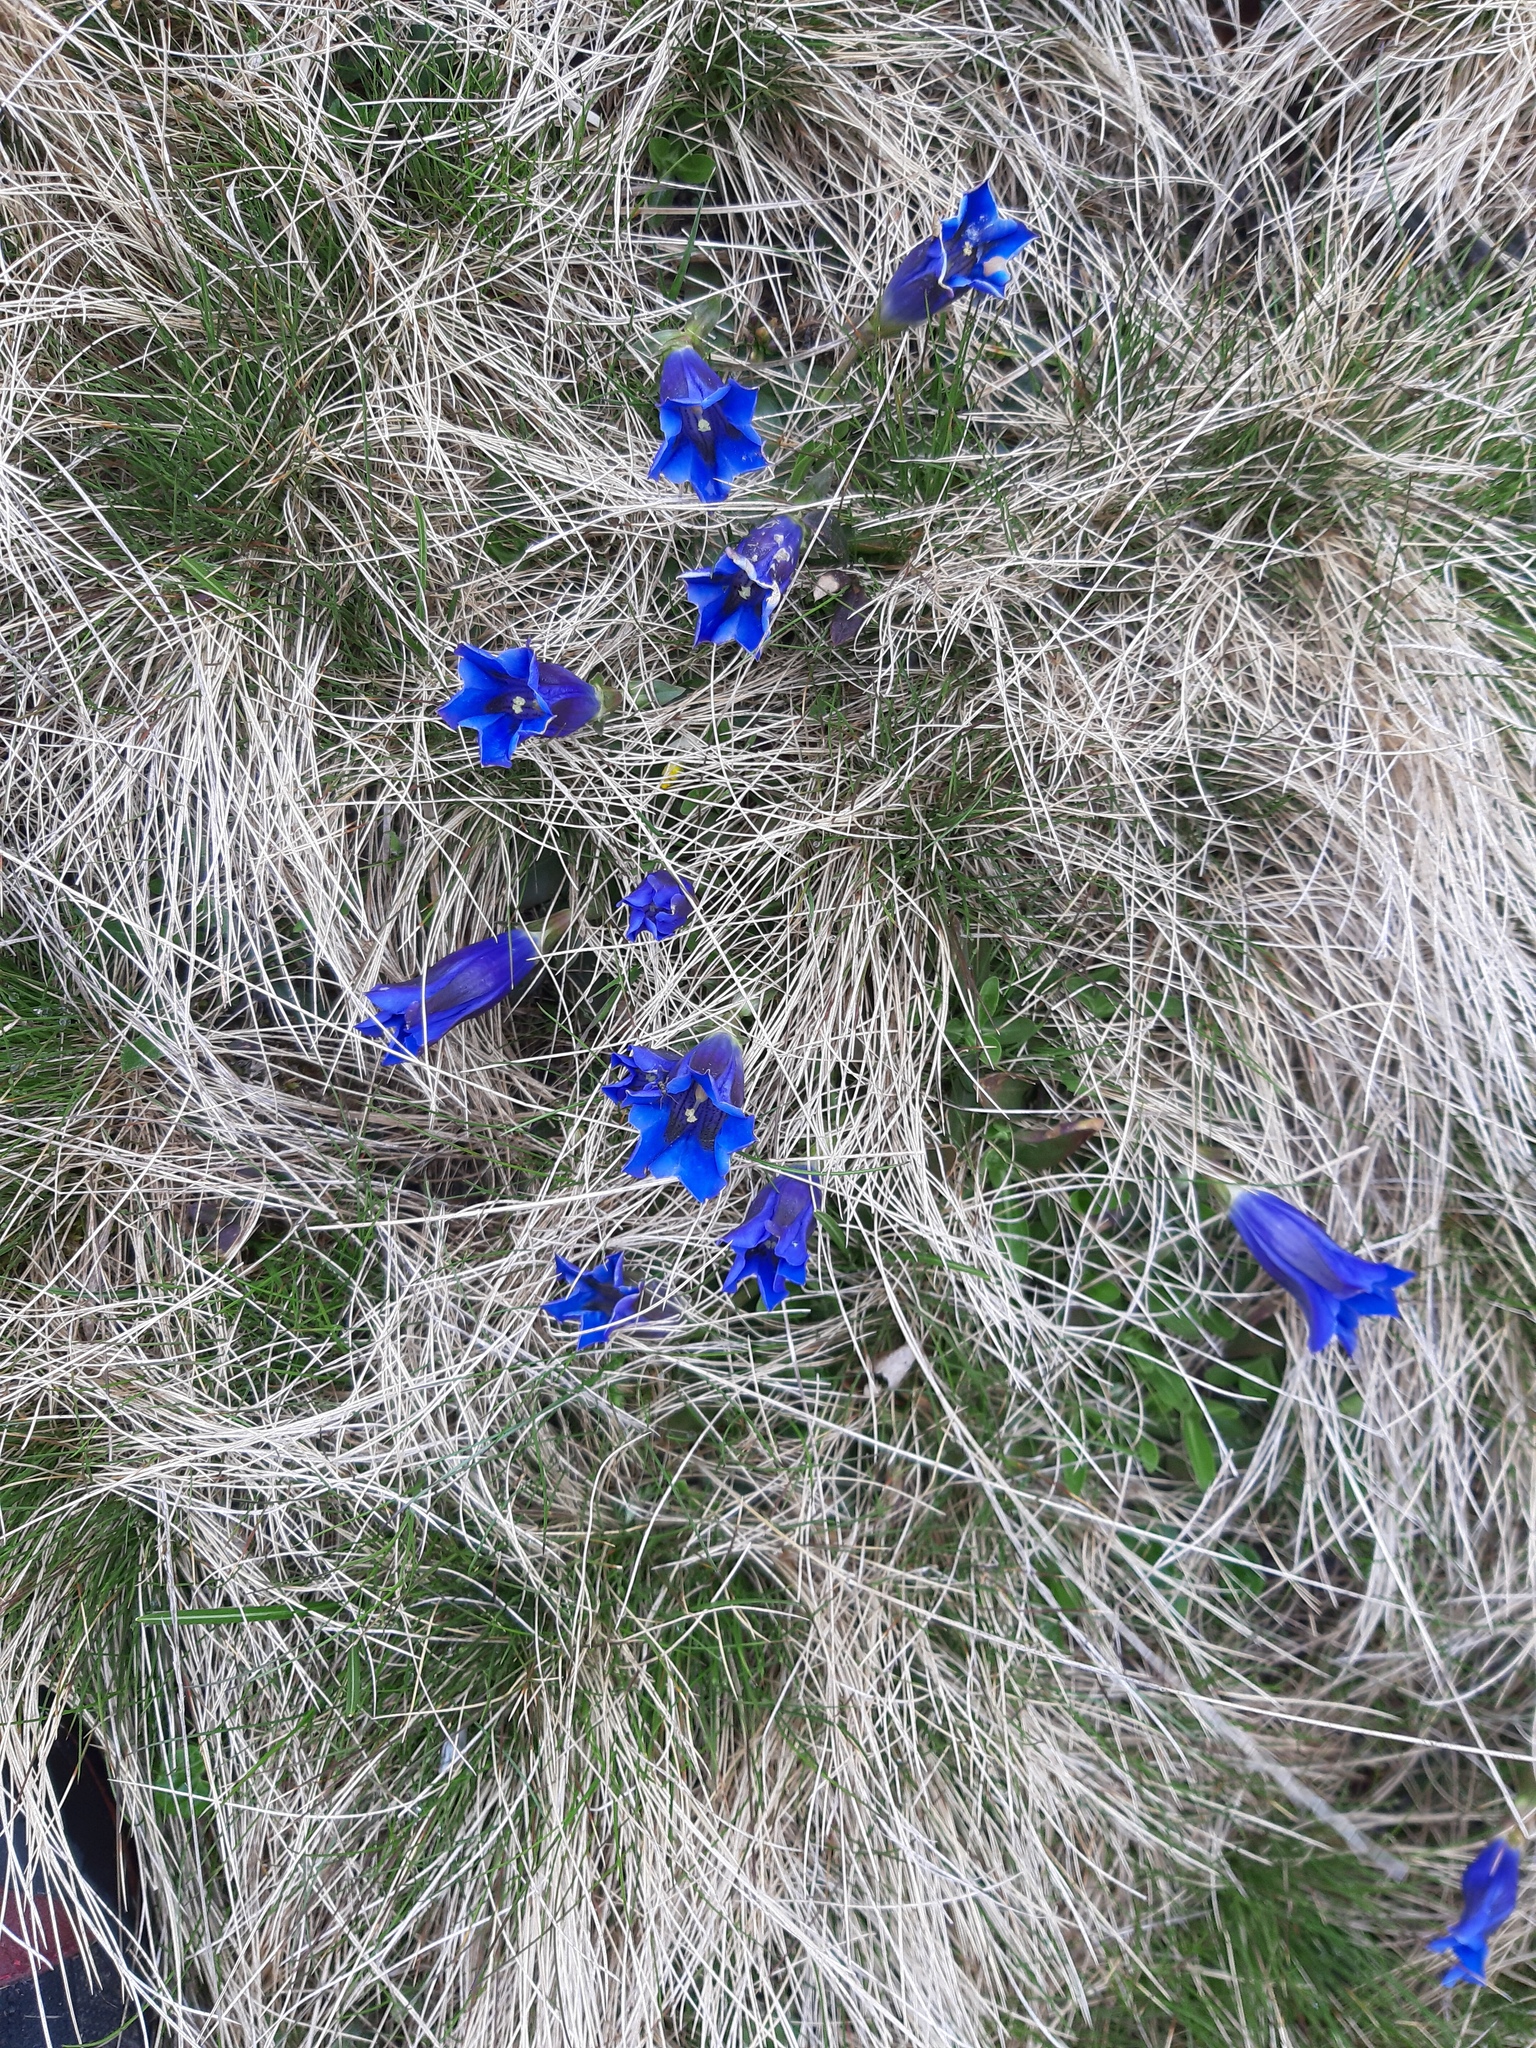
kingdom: Plantae
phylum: Tracheophyta
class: Magnoliopsida
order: Gentianales
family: Gentianaceae
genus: Gentiana
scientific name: Gentiana acaulis
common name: Trumpet gentian
